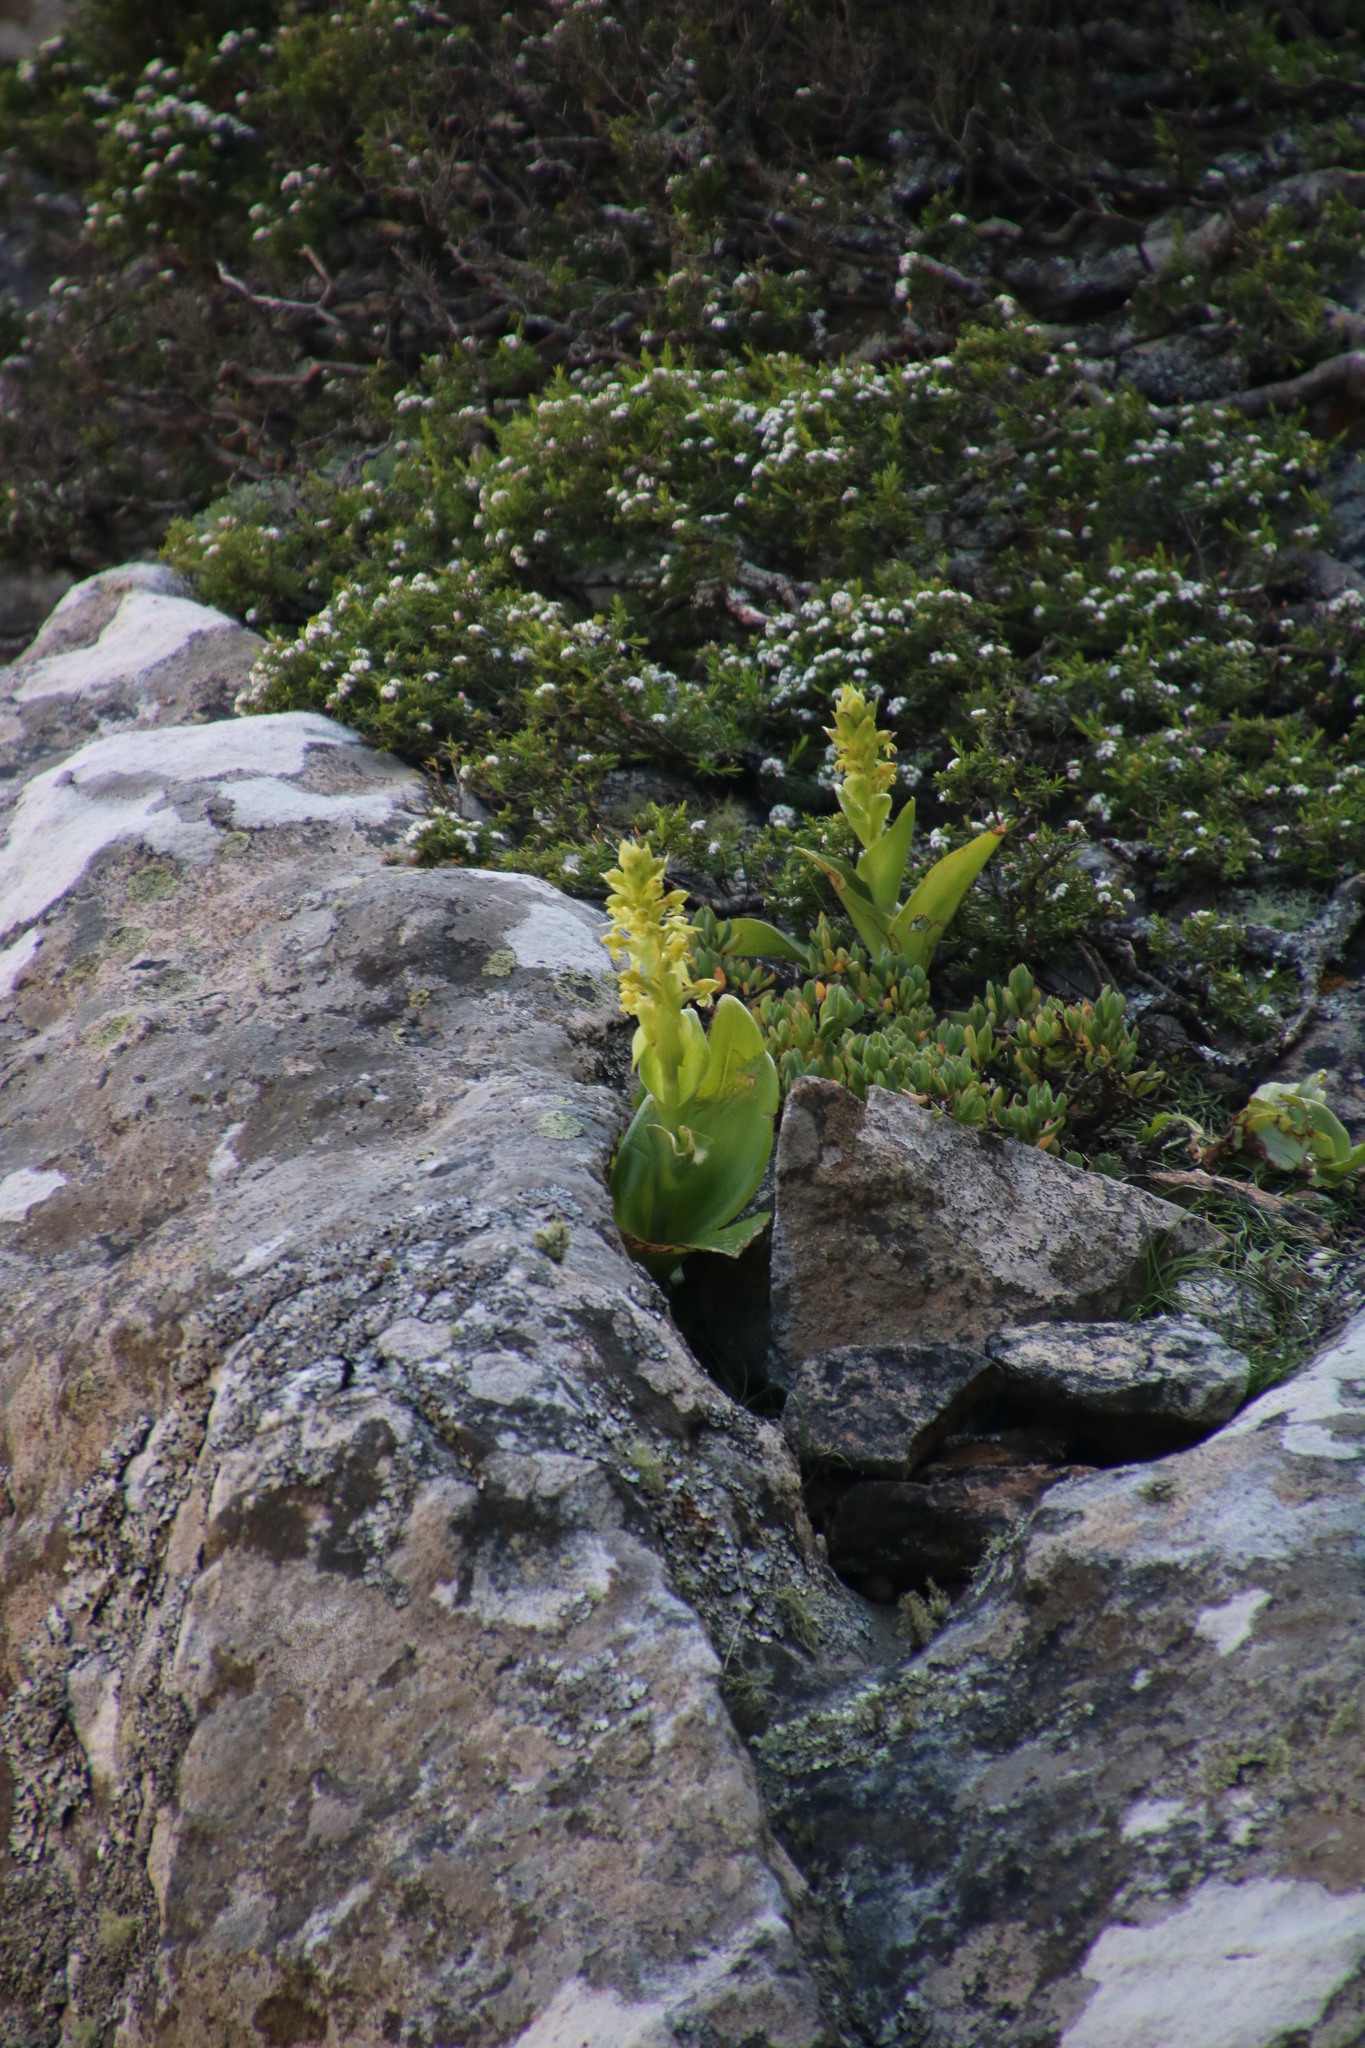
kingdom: Plantae
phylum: Tracheophyta
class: Liliopsida
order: Asparagales
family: Orchidaceae
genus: Satyrium
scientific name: Satyrium odorum
